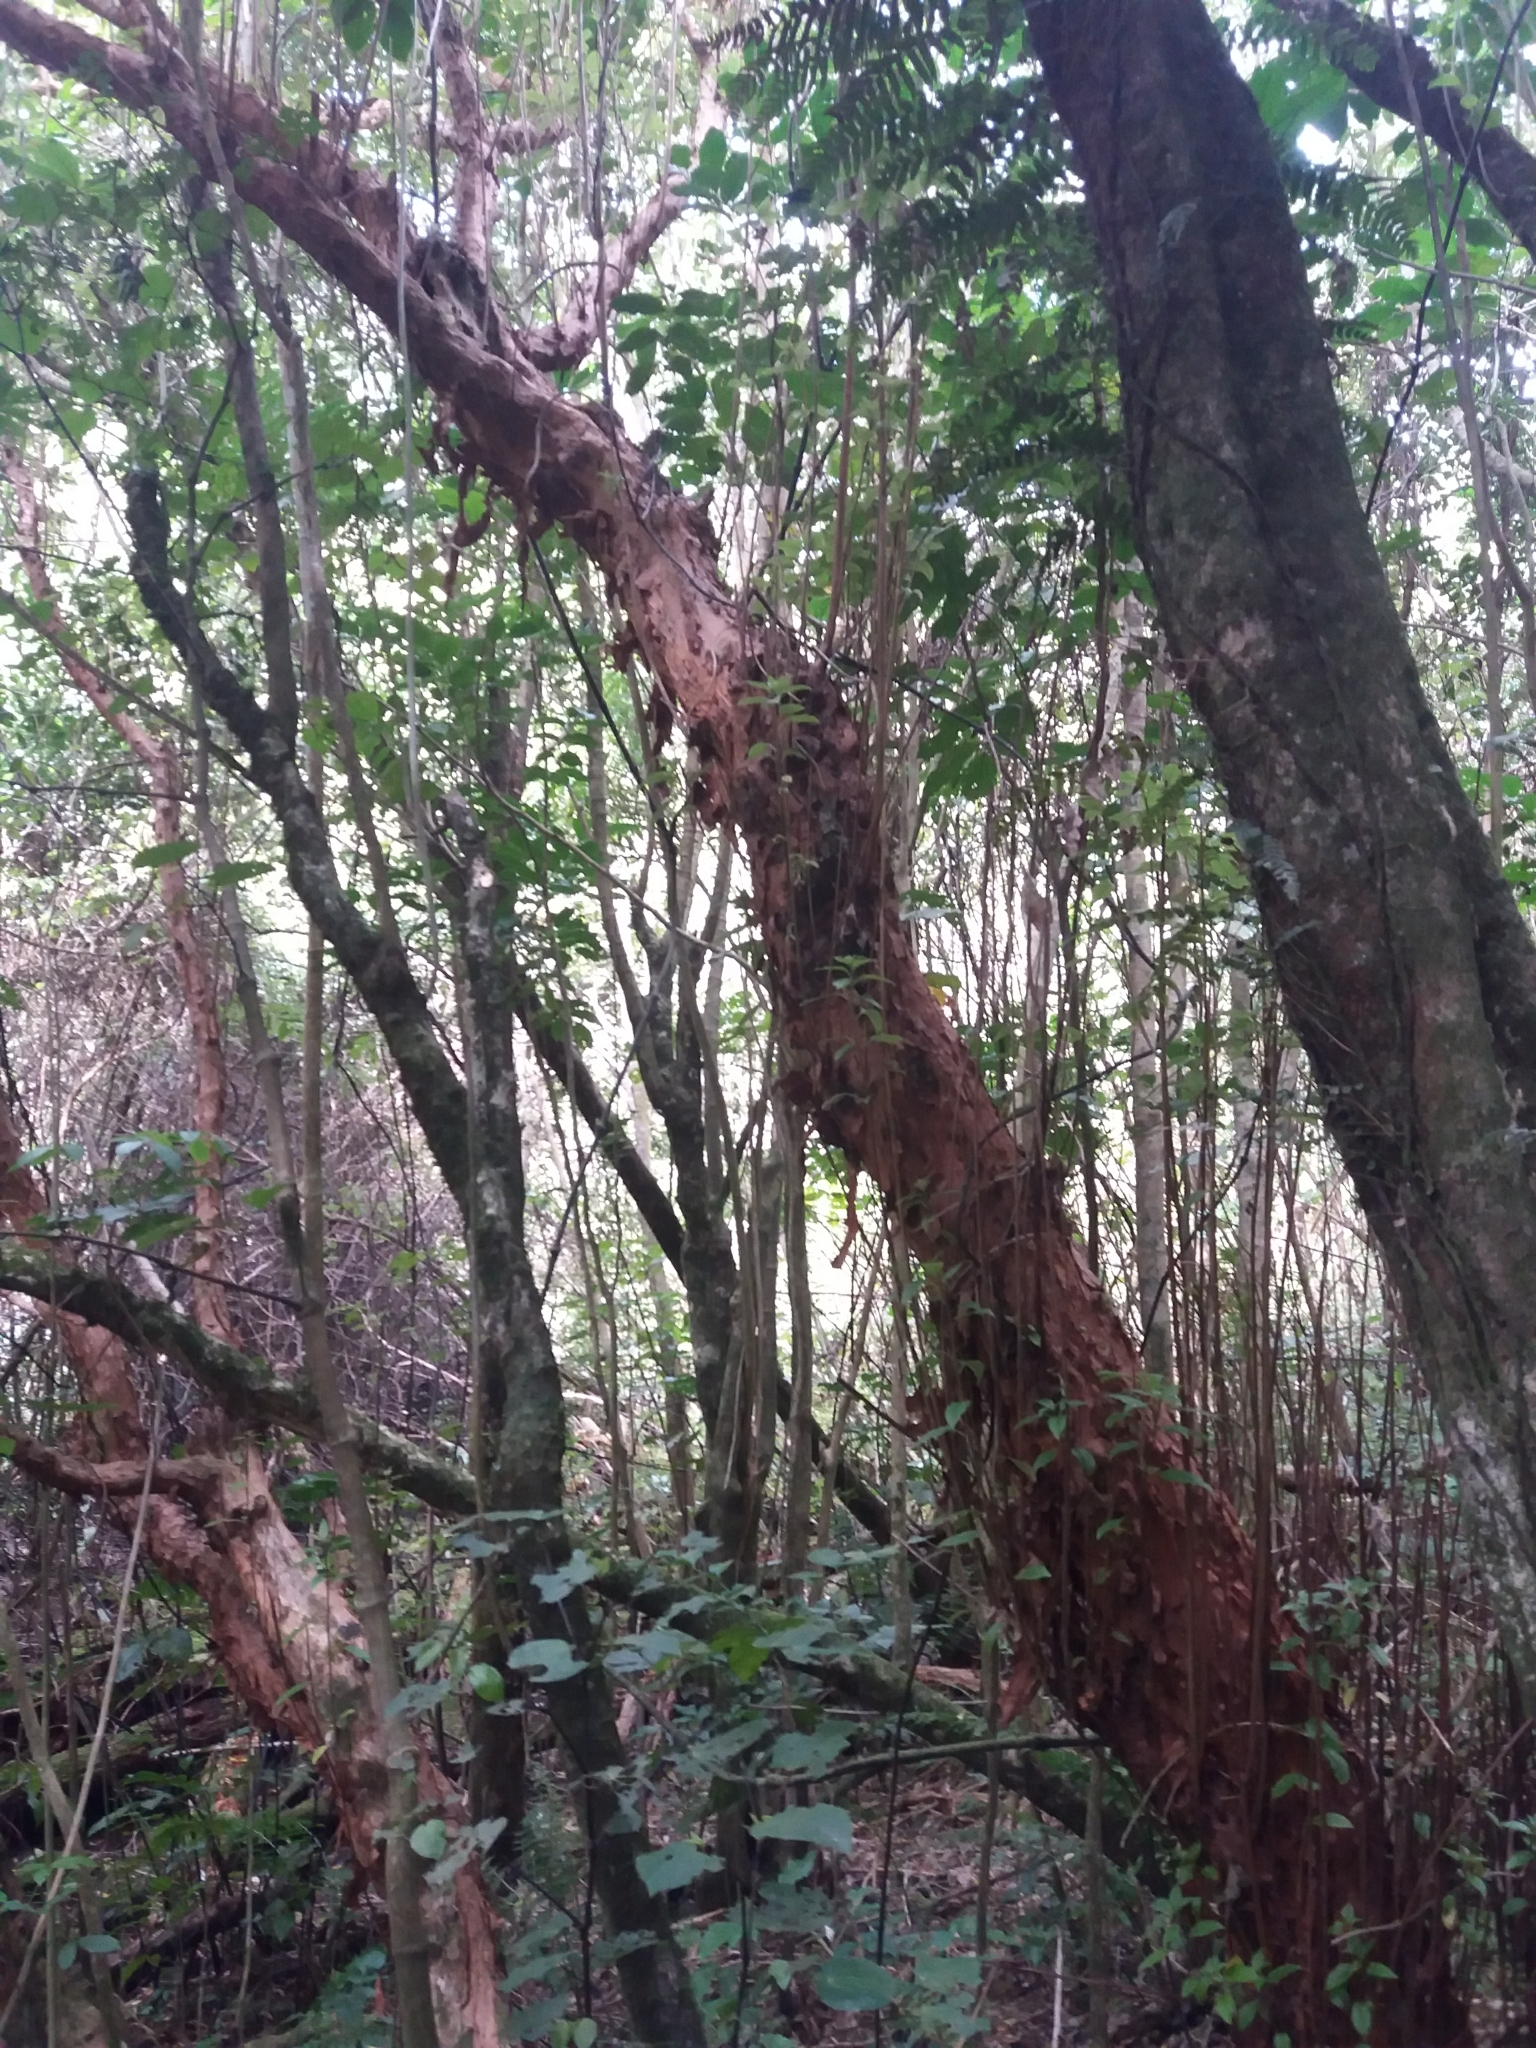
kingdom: Plantae
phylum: Tracheophyta
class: Magnoliopsida
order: Myrtales
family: Onagraceae
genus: Fuchsia
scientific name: Fuchsia excorticata
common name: Tree fuchsia
